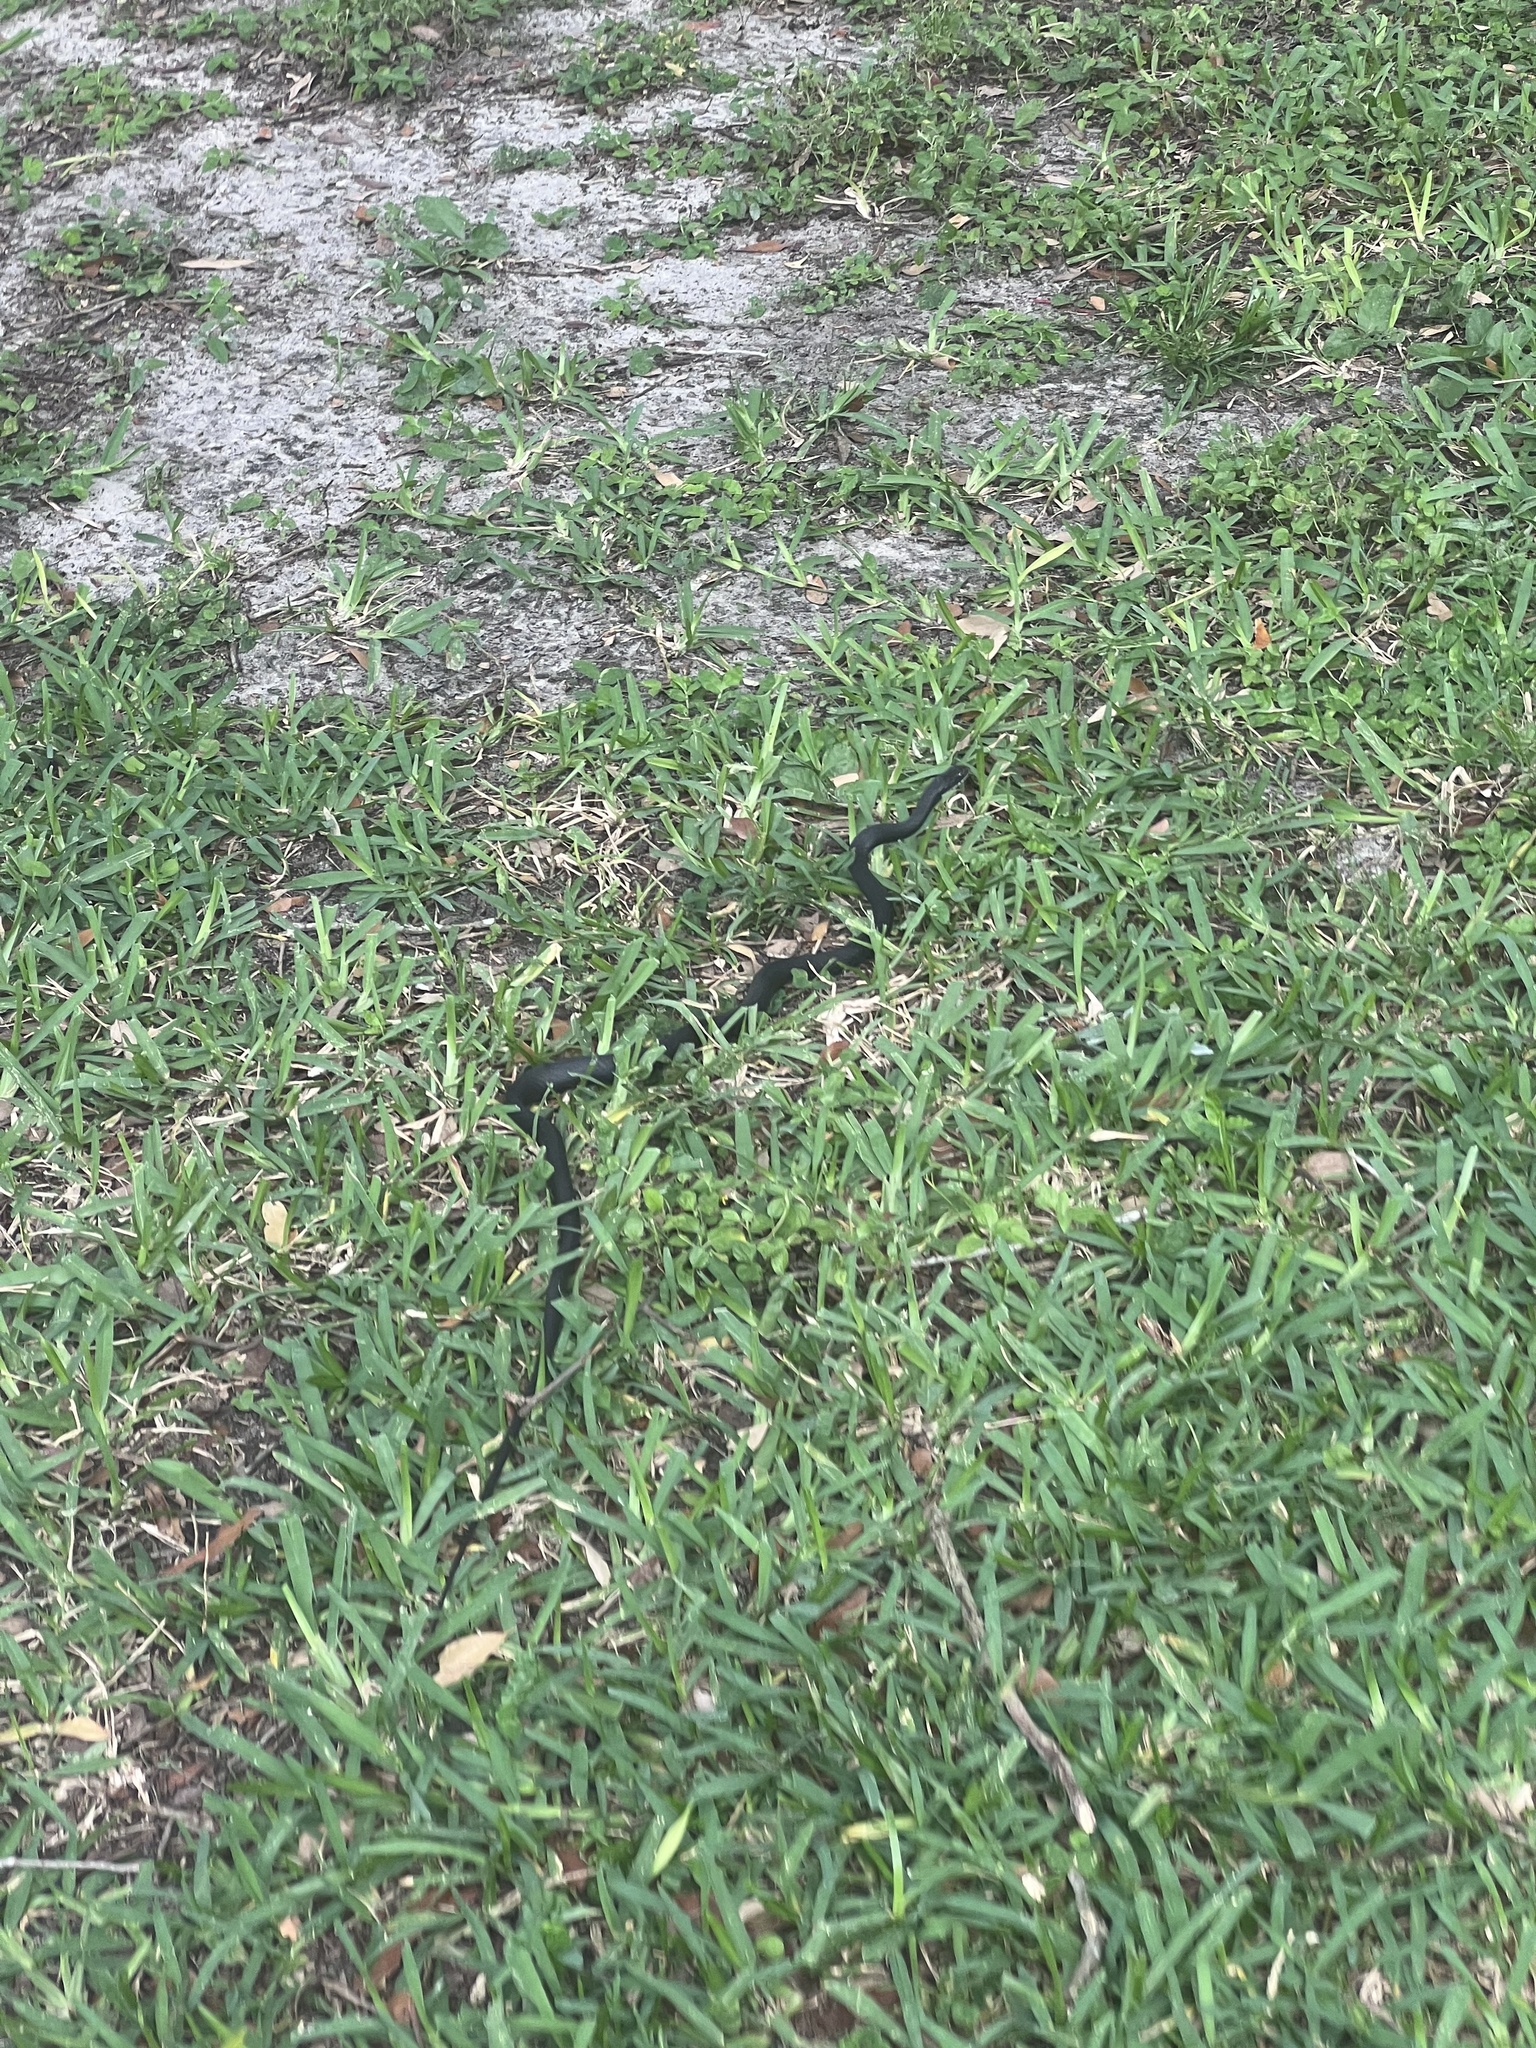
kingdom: Animalia
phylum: Chordata
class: Squamata
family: Colubridae
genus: Coluber
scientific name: Coluber constrictor
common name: Eastern racer
